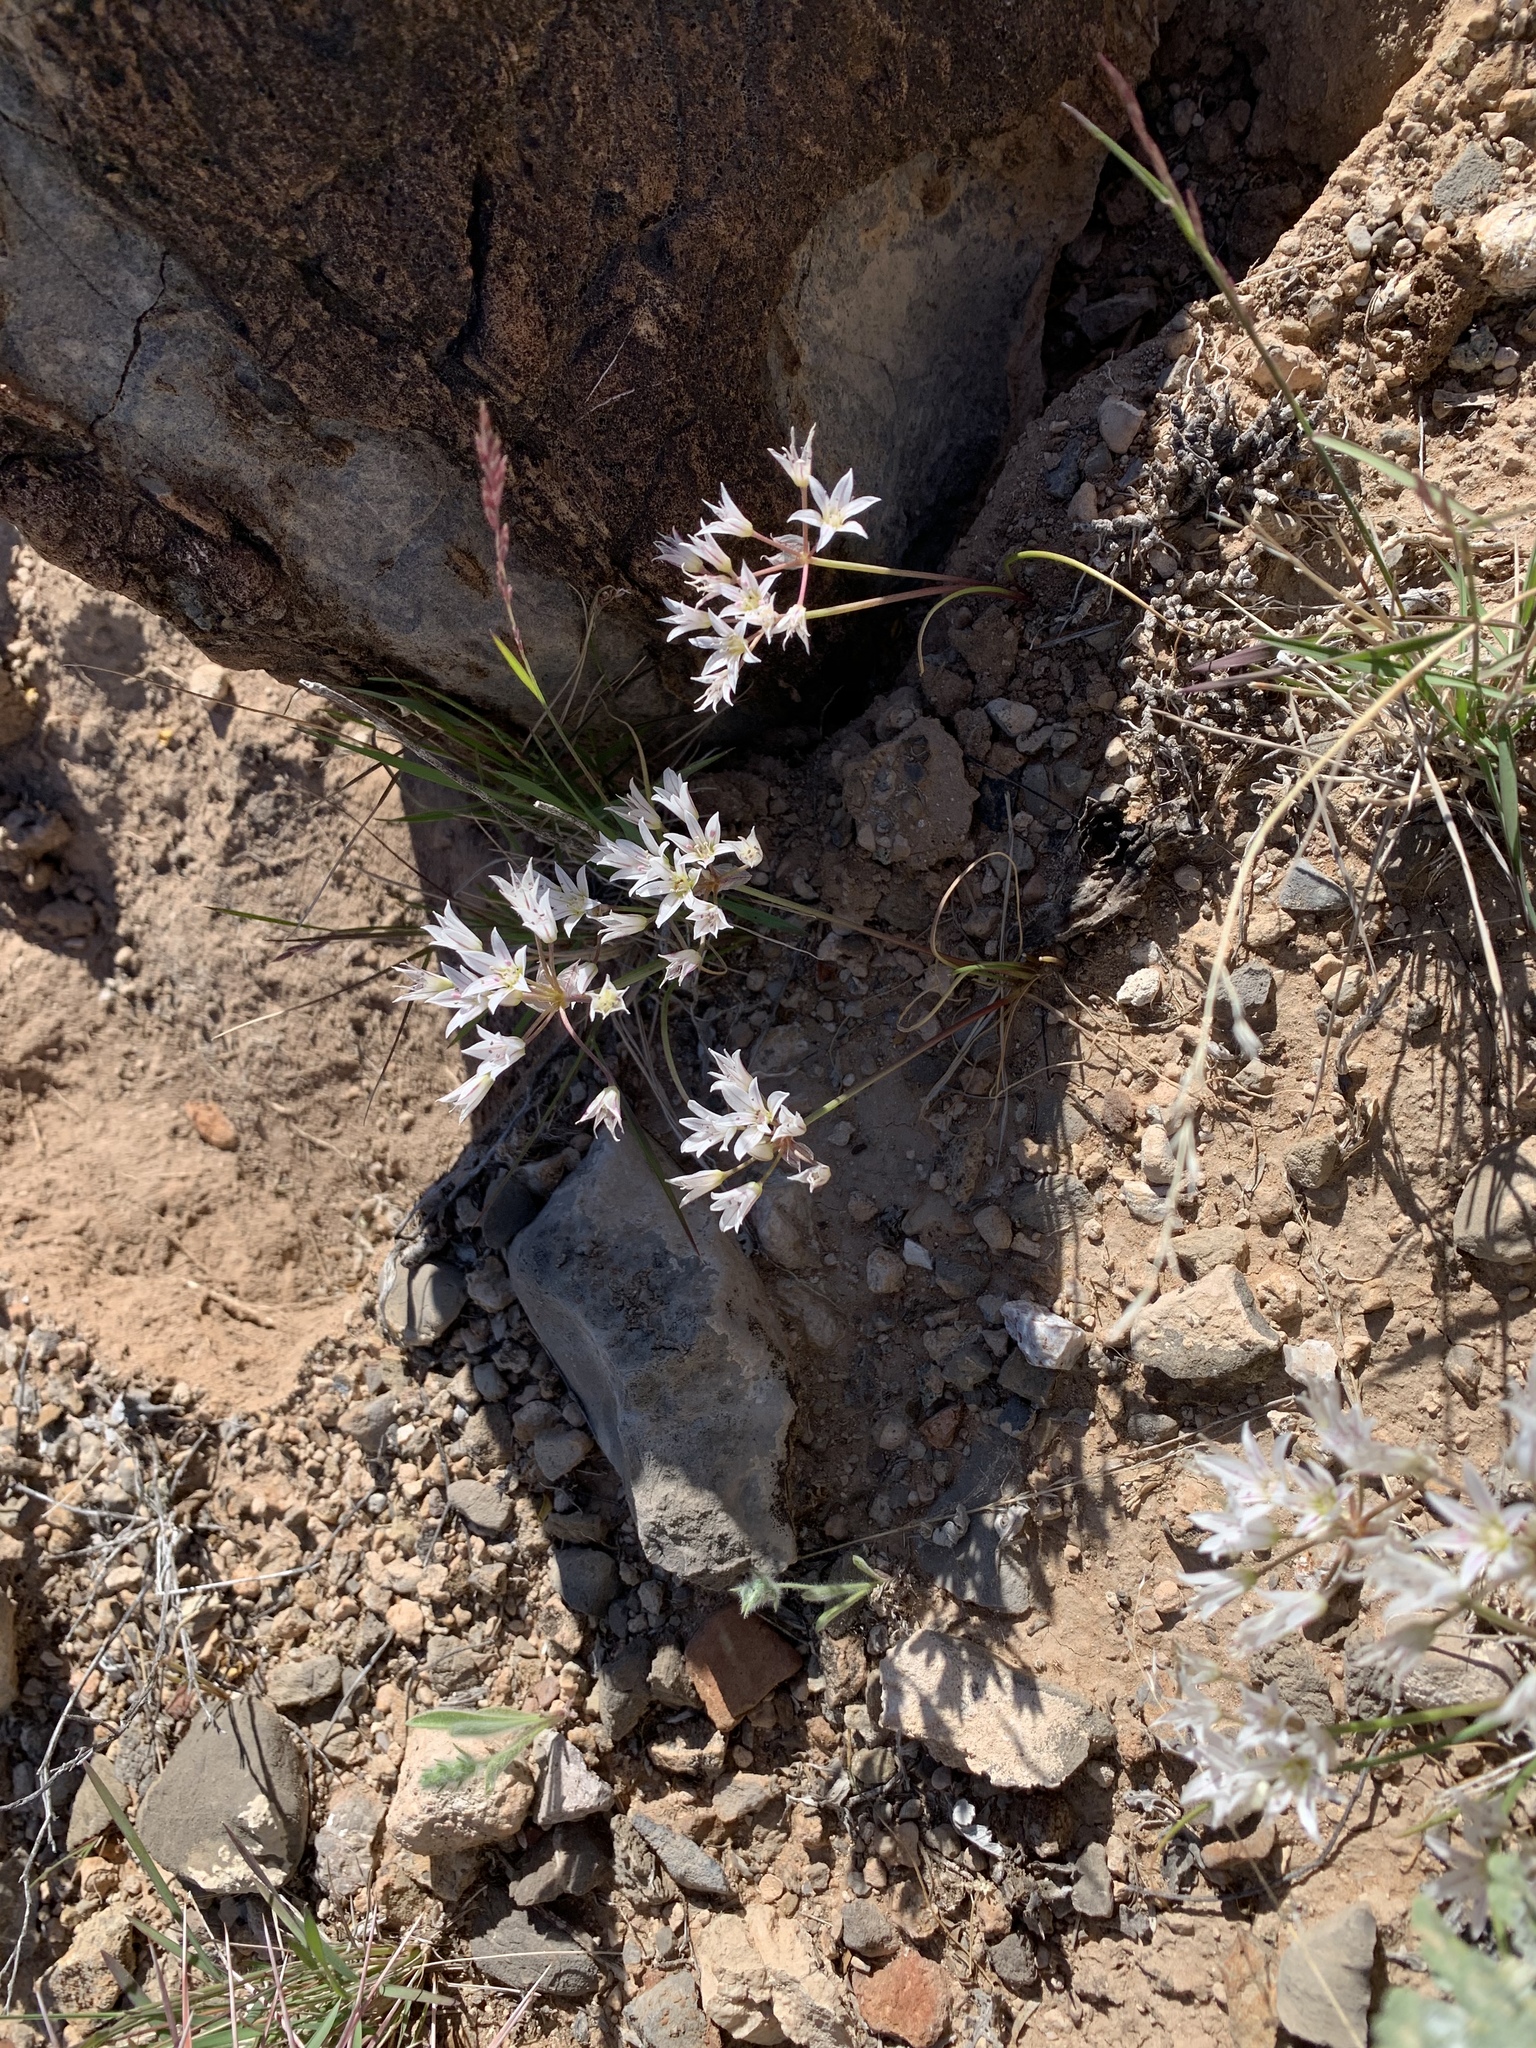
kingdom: Plantae
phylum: Tracheophyta
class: Liliopsida
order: Asparagales
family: Amaryllidaceae
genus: Allium
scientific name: Allium macropetalum
